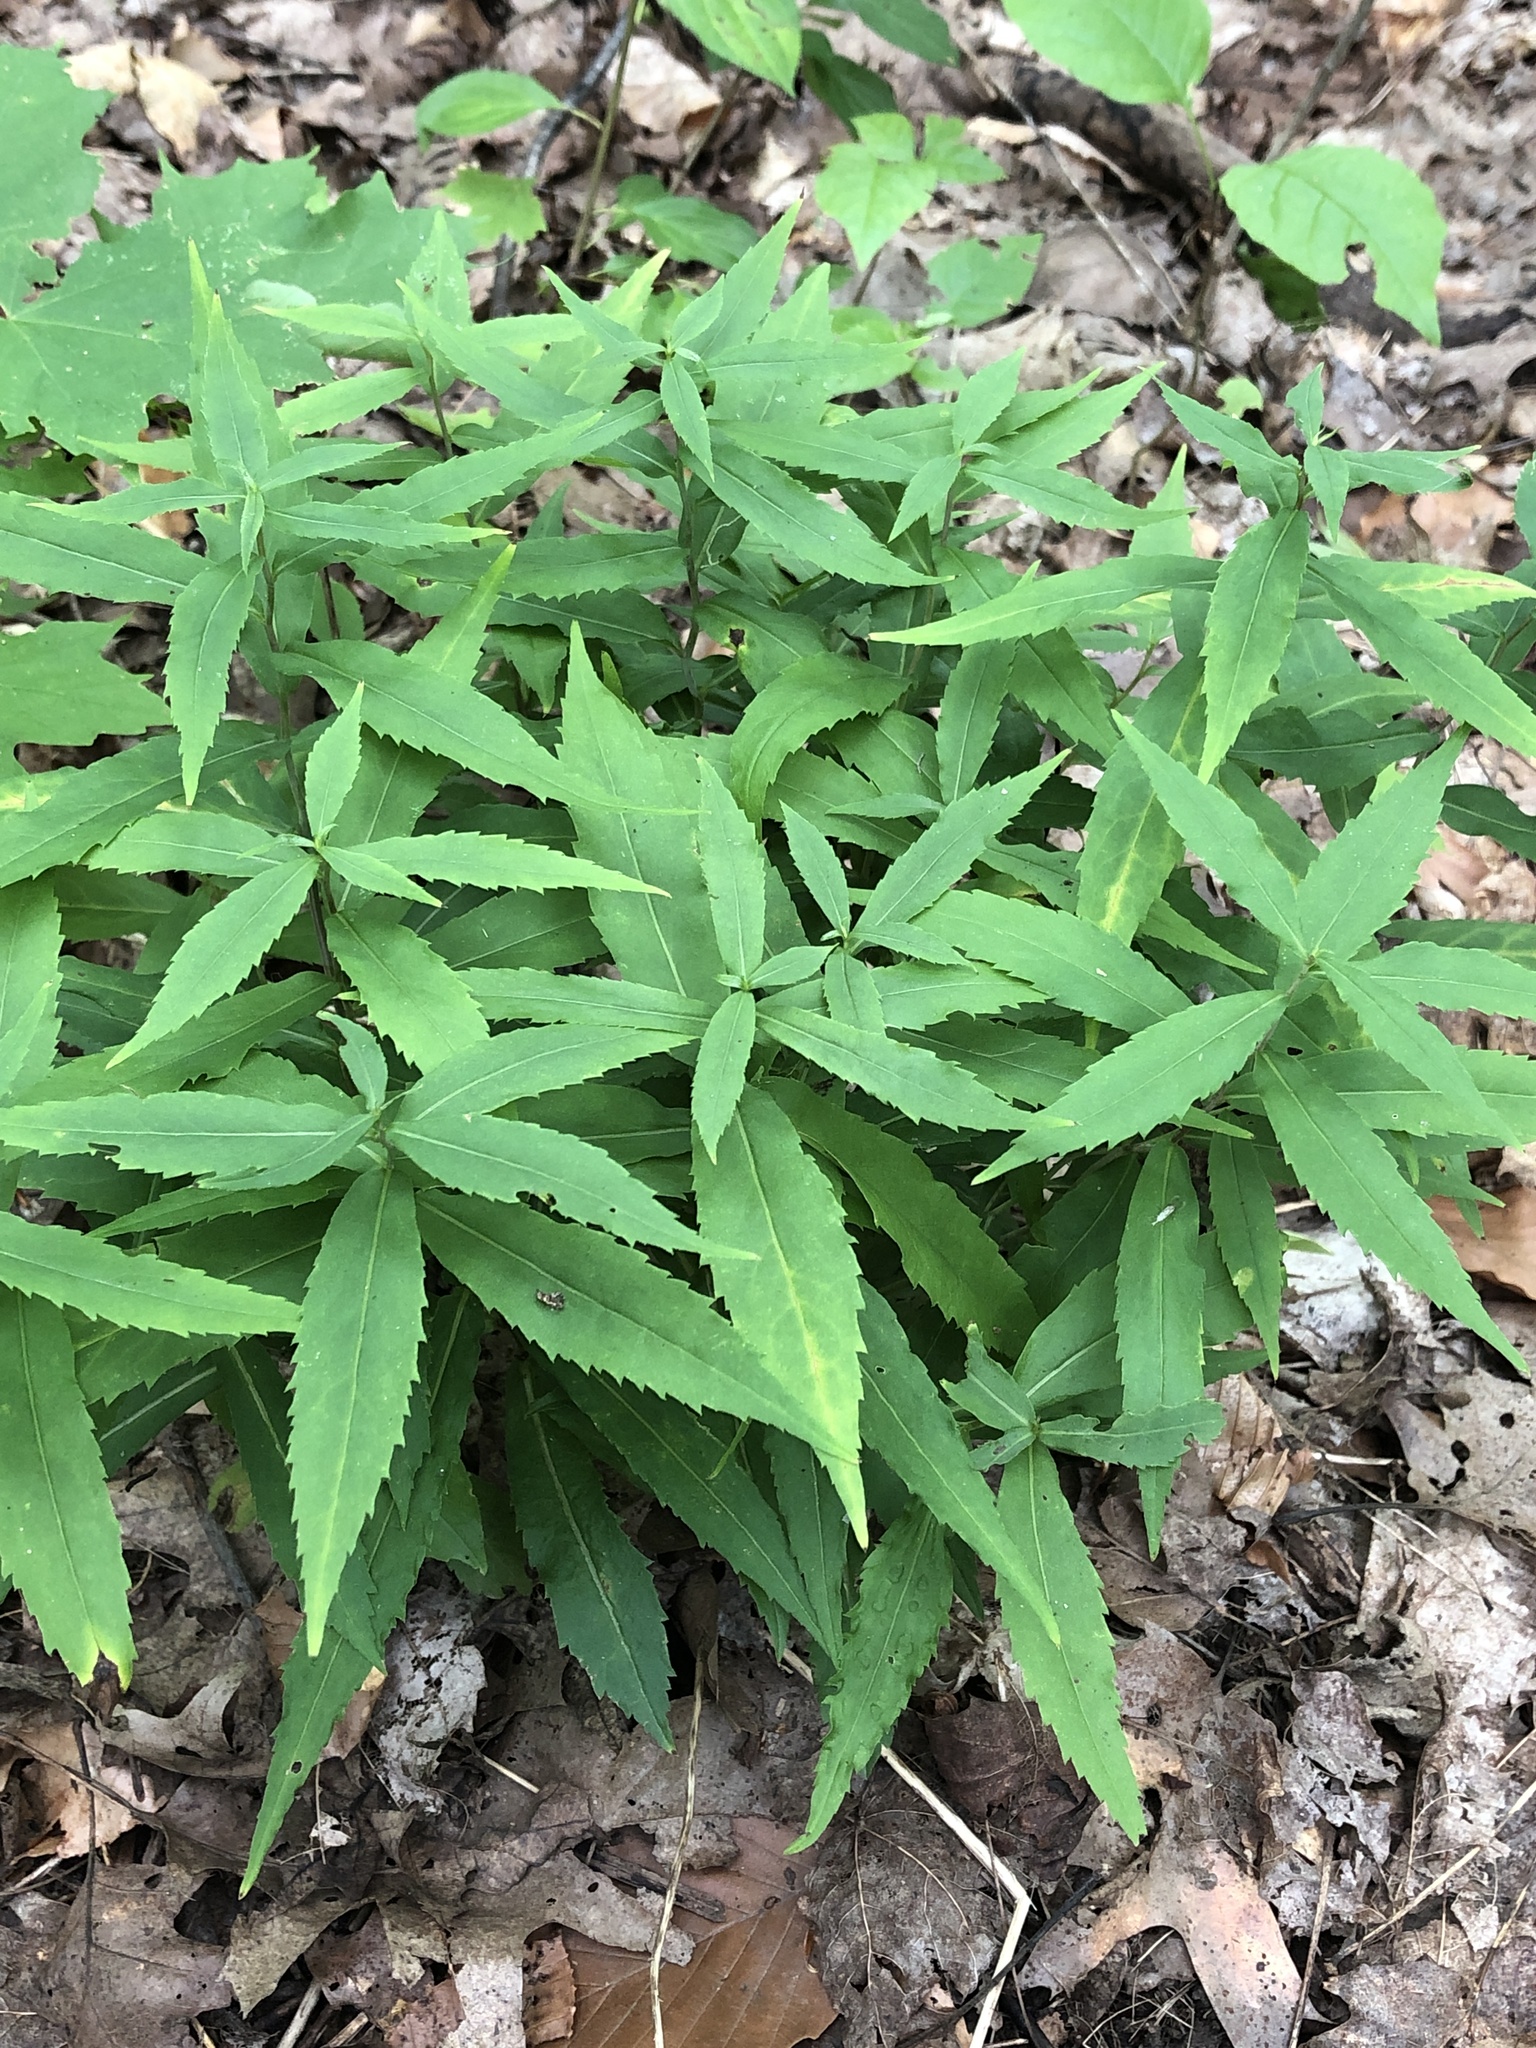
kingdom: Plantae
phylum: Tracheophyta
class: Magnoliopsida
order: Asterales
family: Asteraceae
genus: Solidago
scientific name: Solidago caesia
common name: Woodland goldenrod
